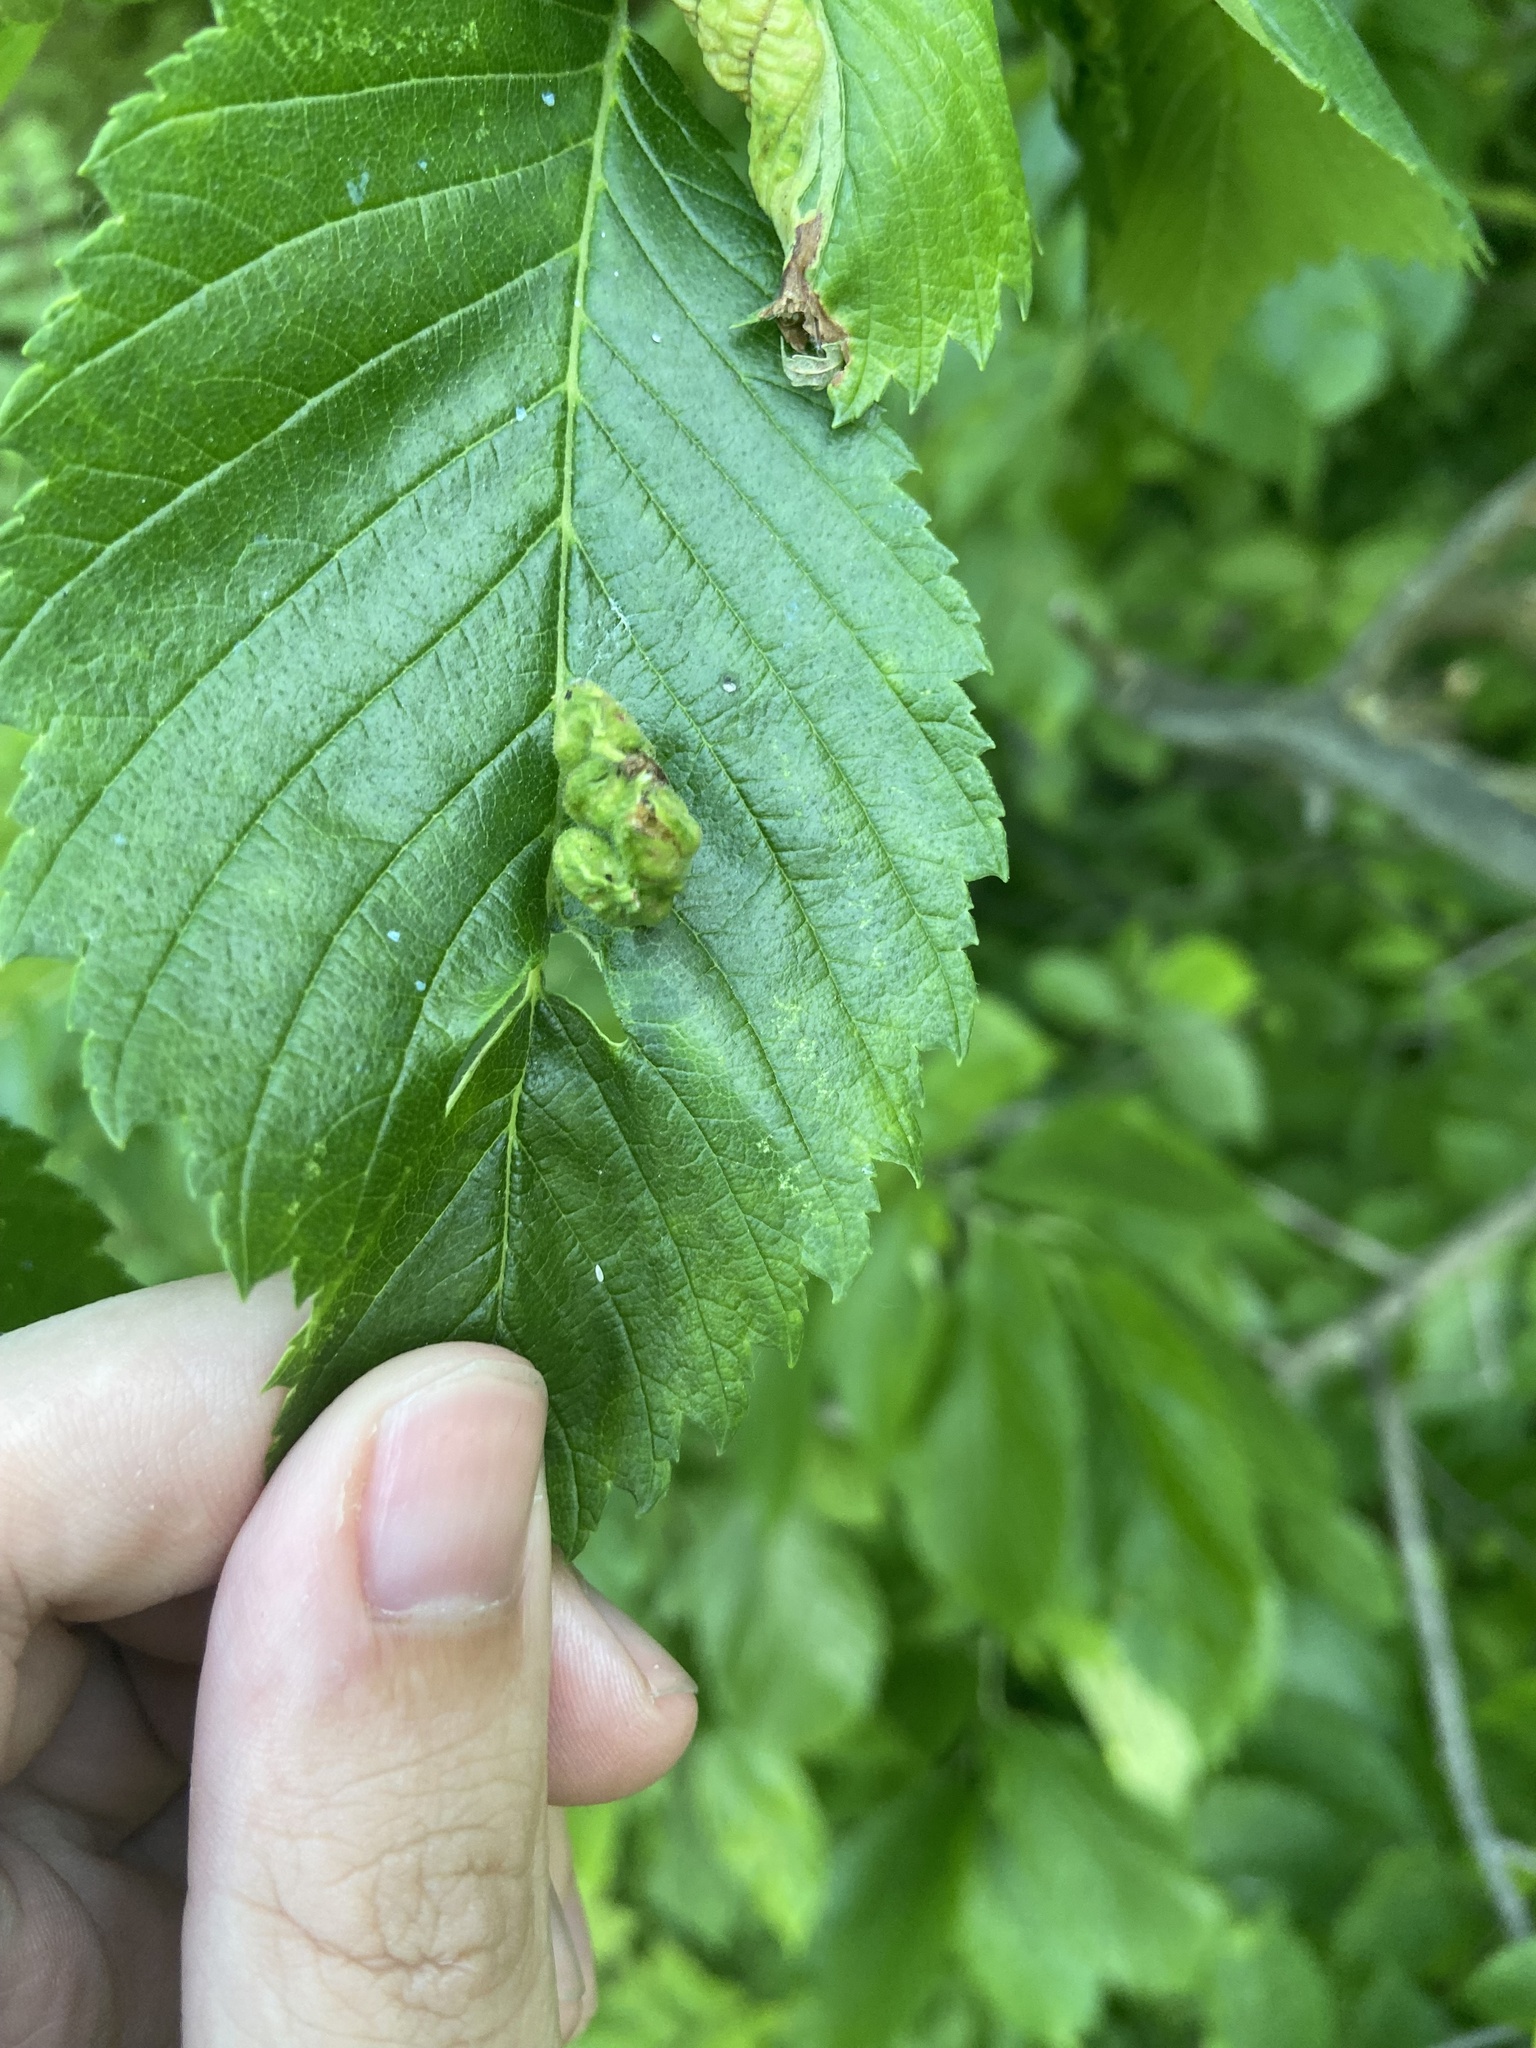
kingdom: Animalia
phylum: Arthropoda
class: Insecta
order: Hemiptera
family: Aphididae
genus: Colopha
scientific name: Colopha ulmicola
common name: Elm cockscombgall aphid
